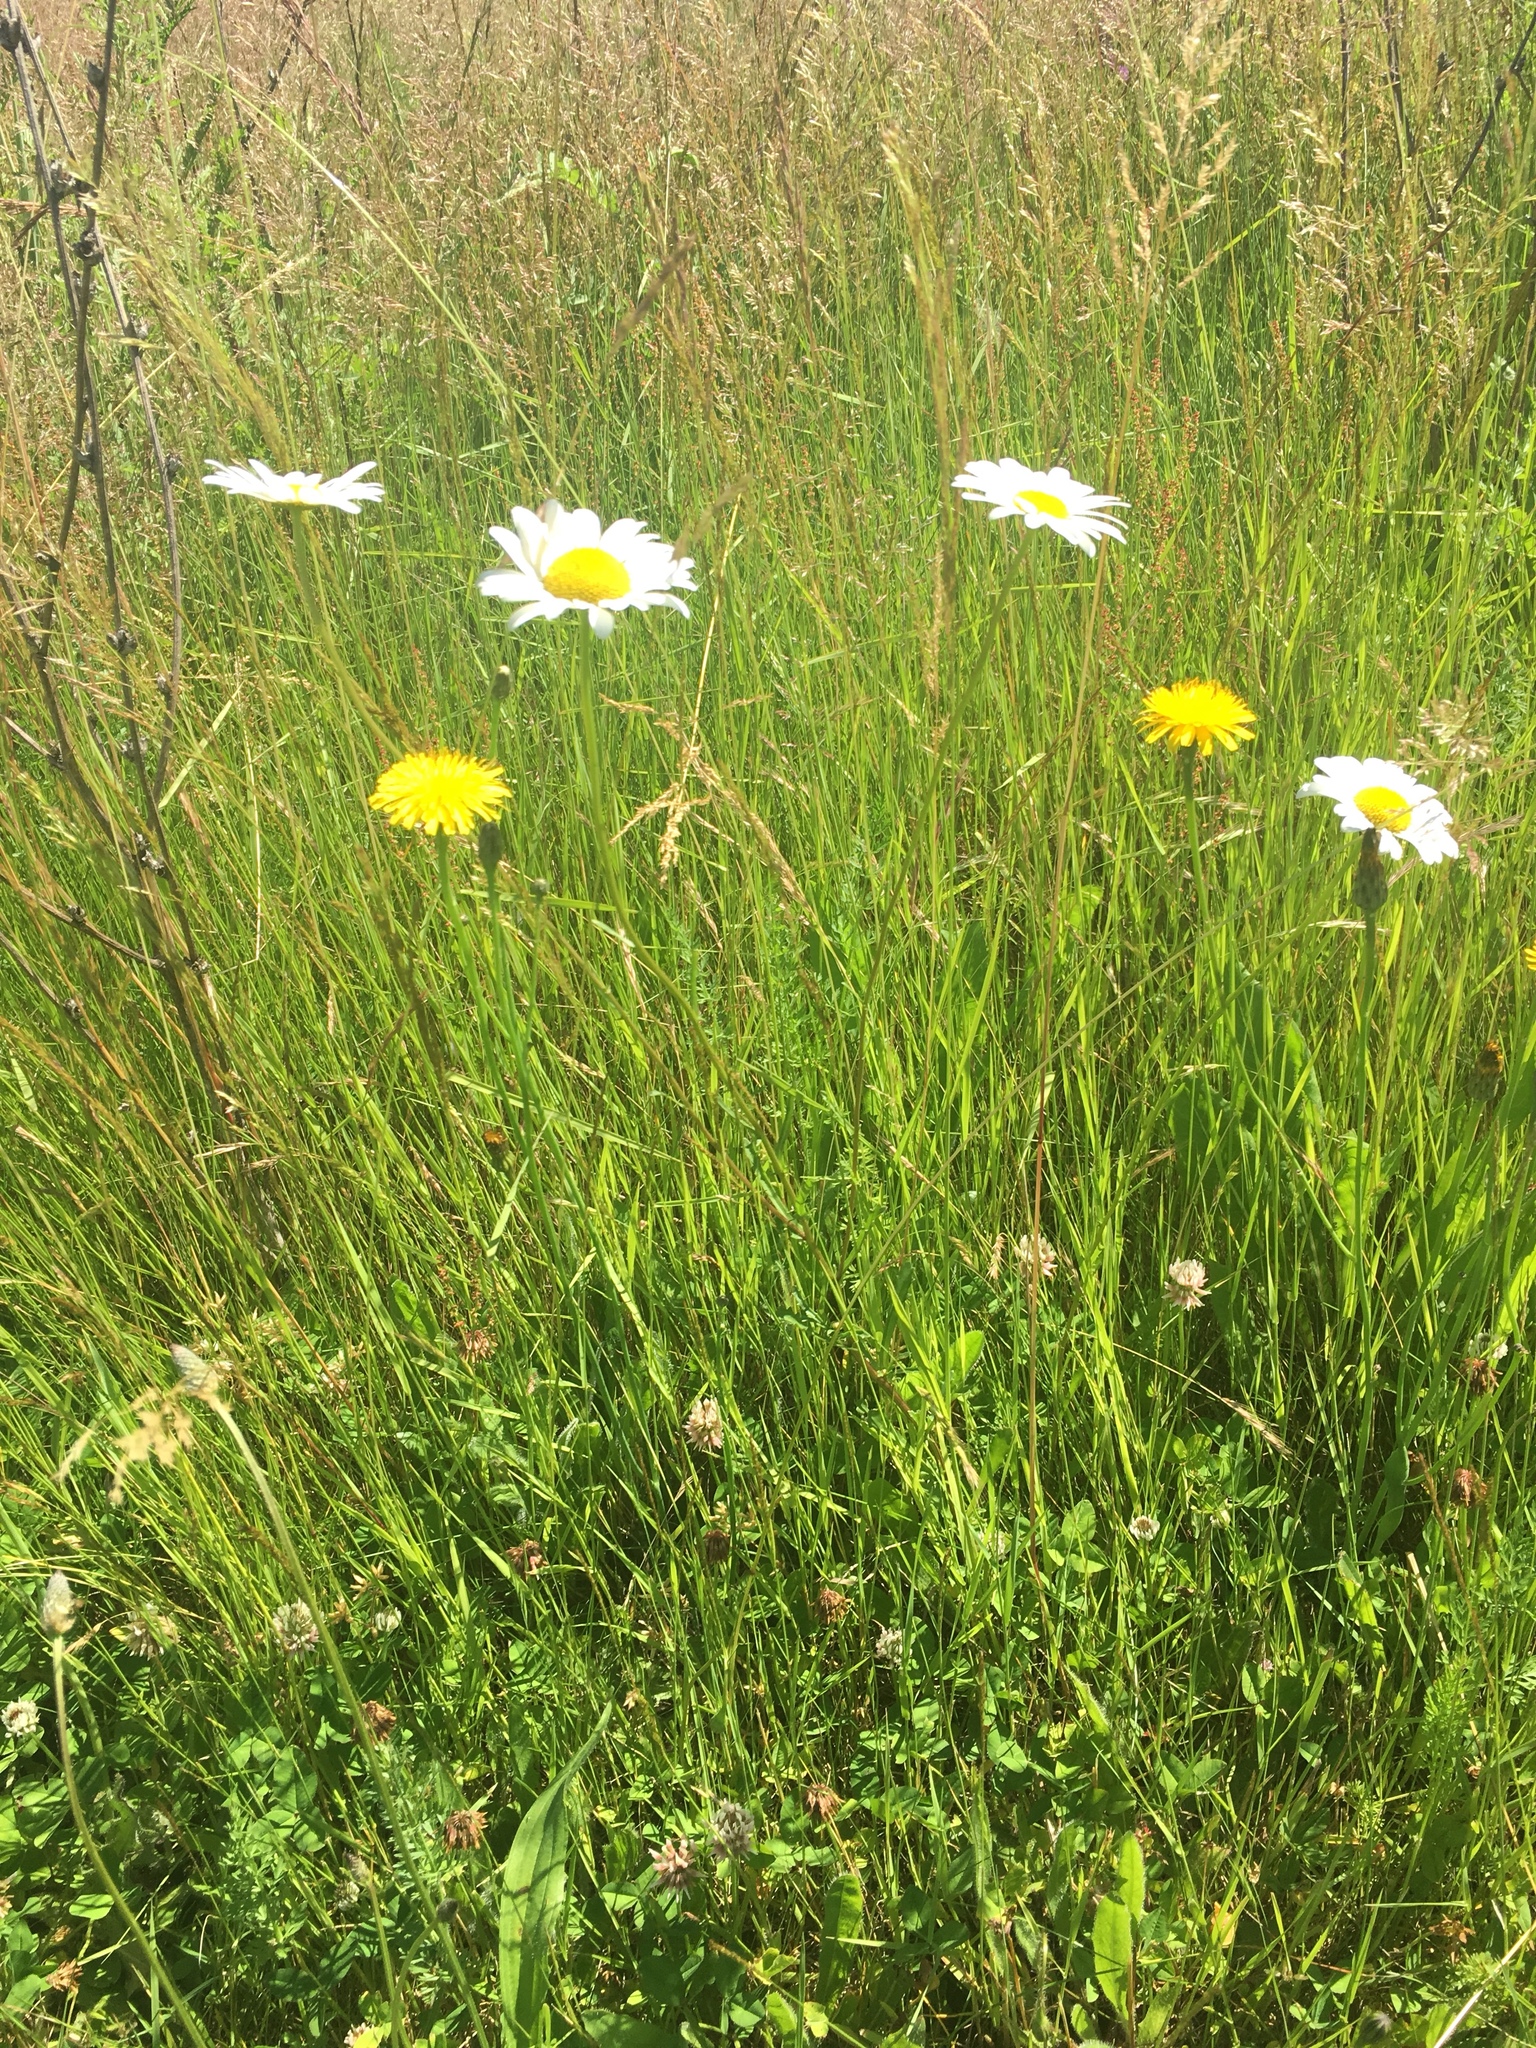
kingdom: Plantae
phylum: Tracheophyta
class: Magnoliopsida
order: Asterales
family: Asteraceae
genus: Leucanthemum
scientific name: Leucanthemum vulgare
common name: Oxeye daisy
